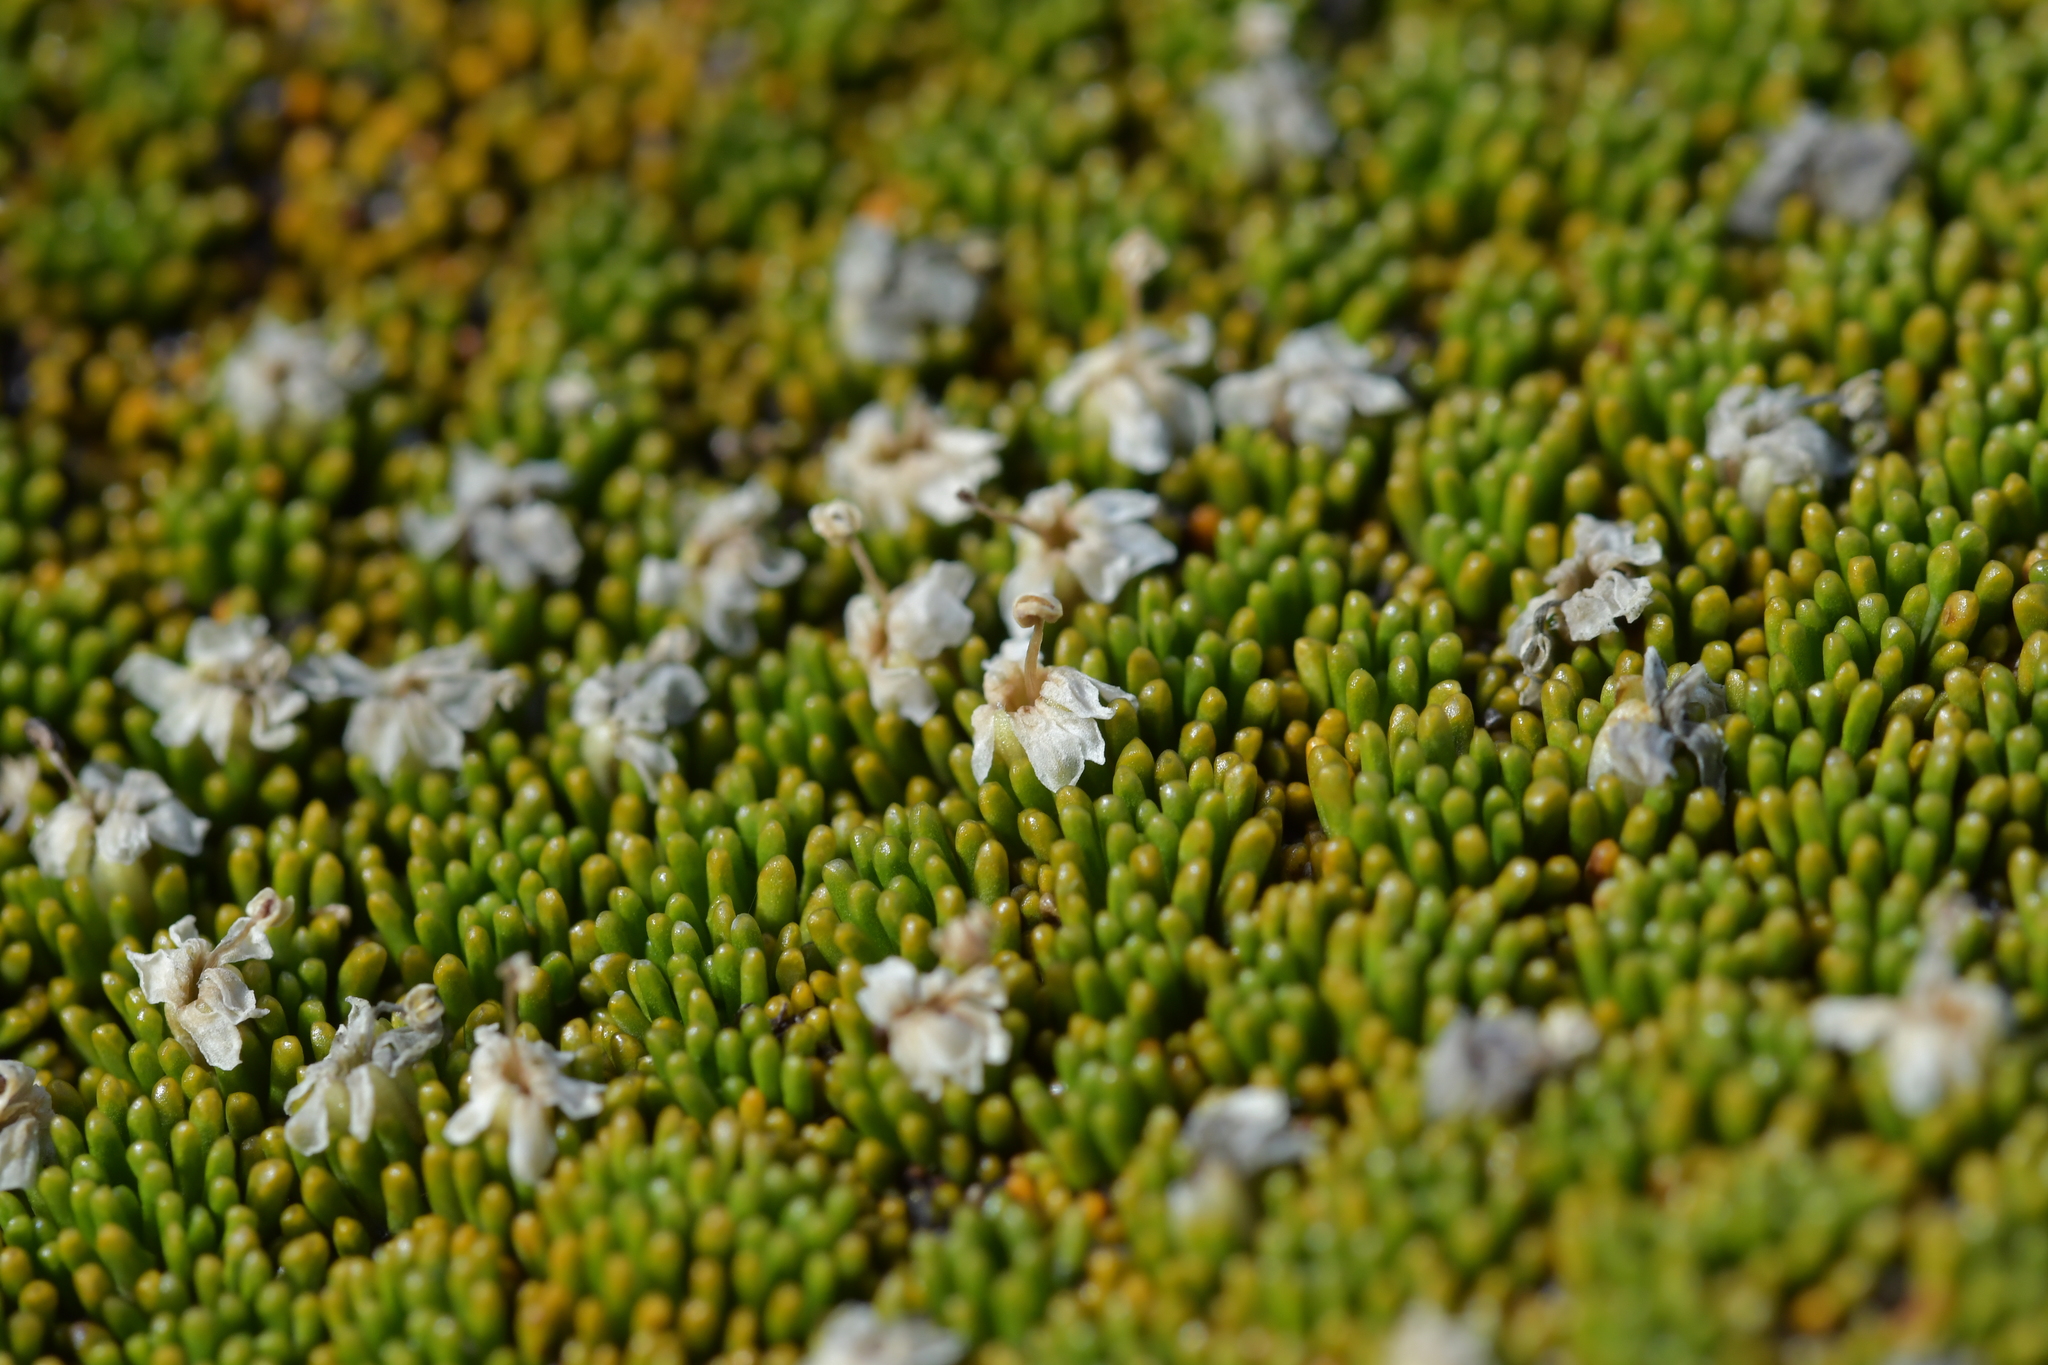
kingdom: Plantae
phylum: Tracheophyta
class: Magnoliopsida
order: Asterales
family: Stylidiaceae
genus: Phyllachne
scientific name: Phyllachne colensoi
